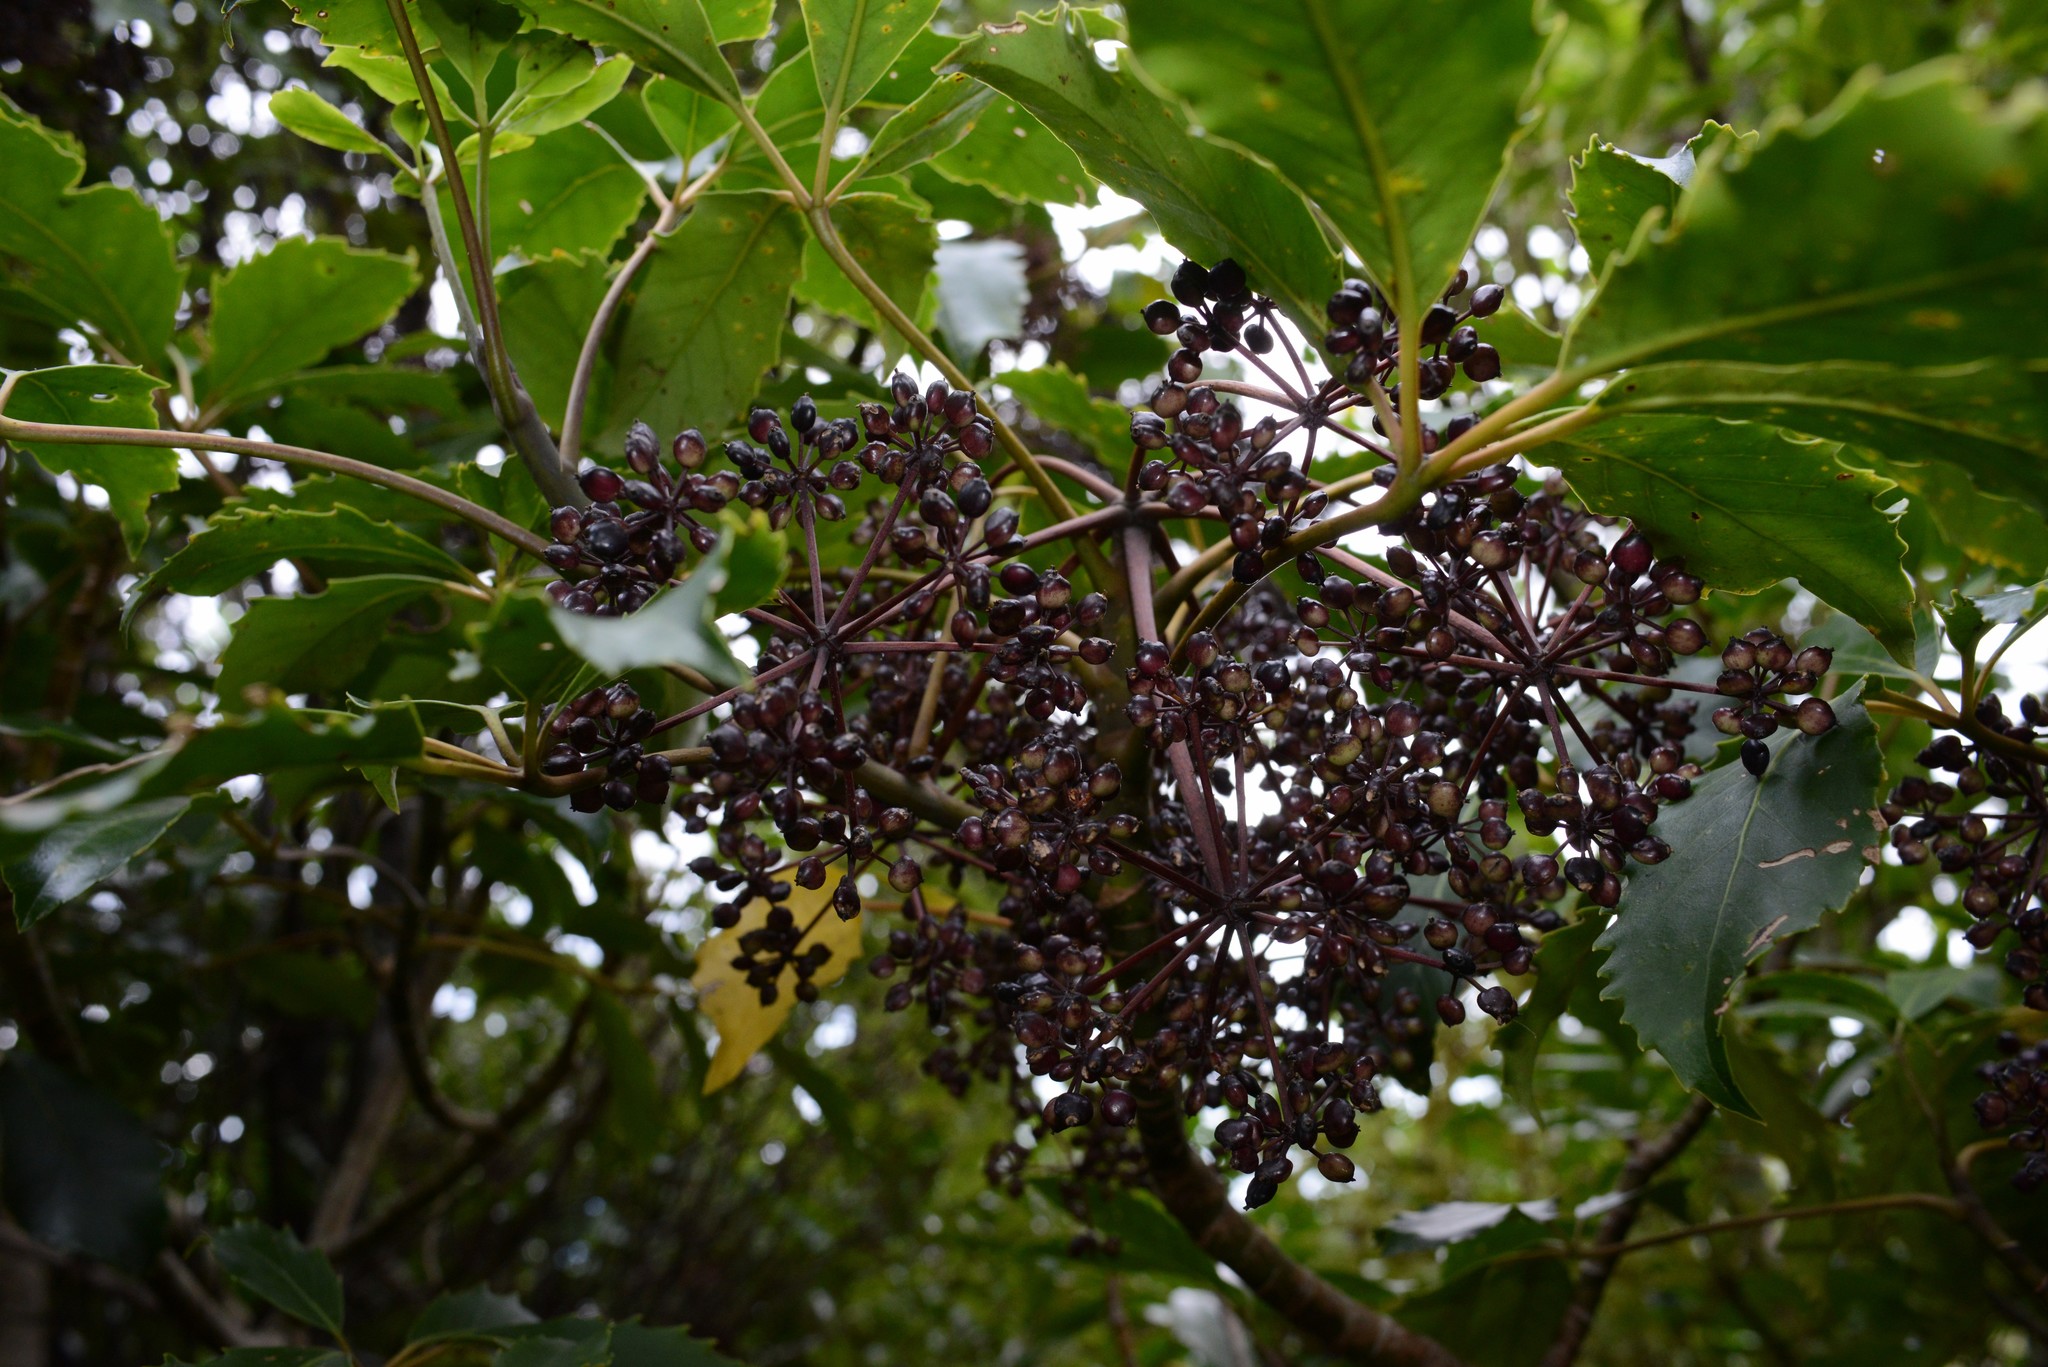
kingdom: Plantae
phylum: Tracheophyta
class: Magnoliopsida
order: Apiales
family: Araliaceae
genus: Neopanax
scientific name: Neopanax arboreus
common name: Five-fingers
